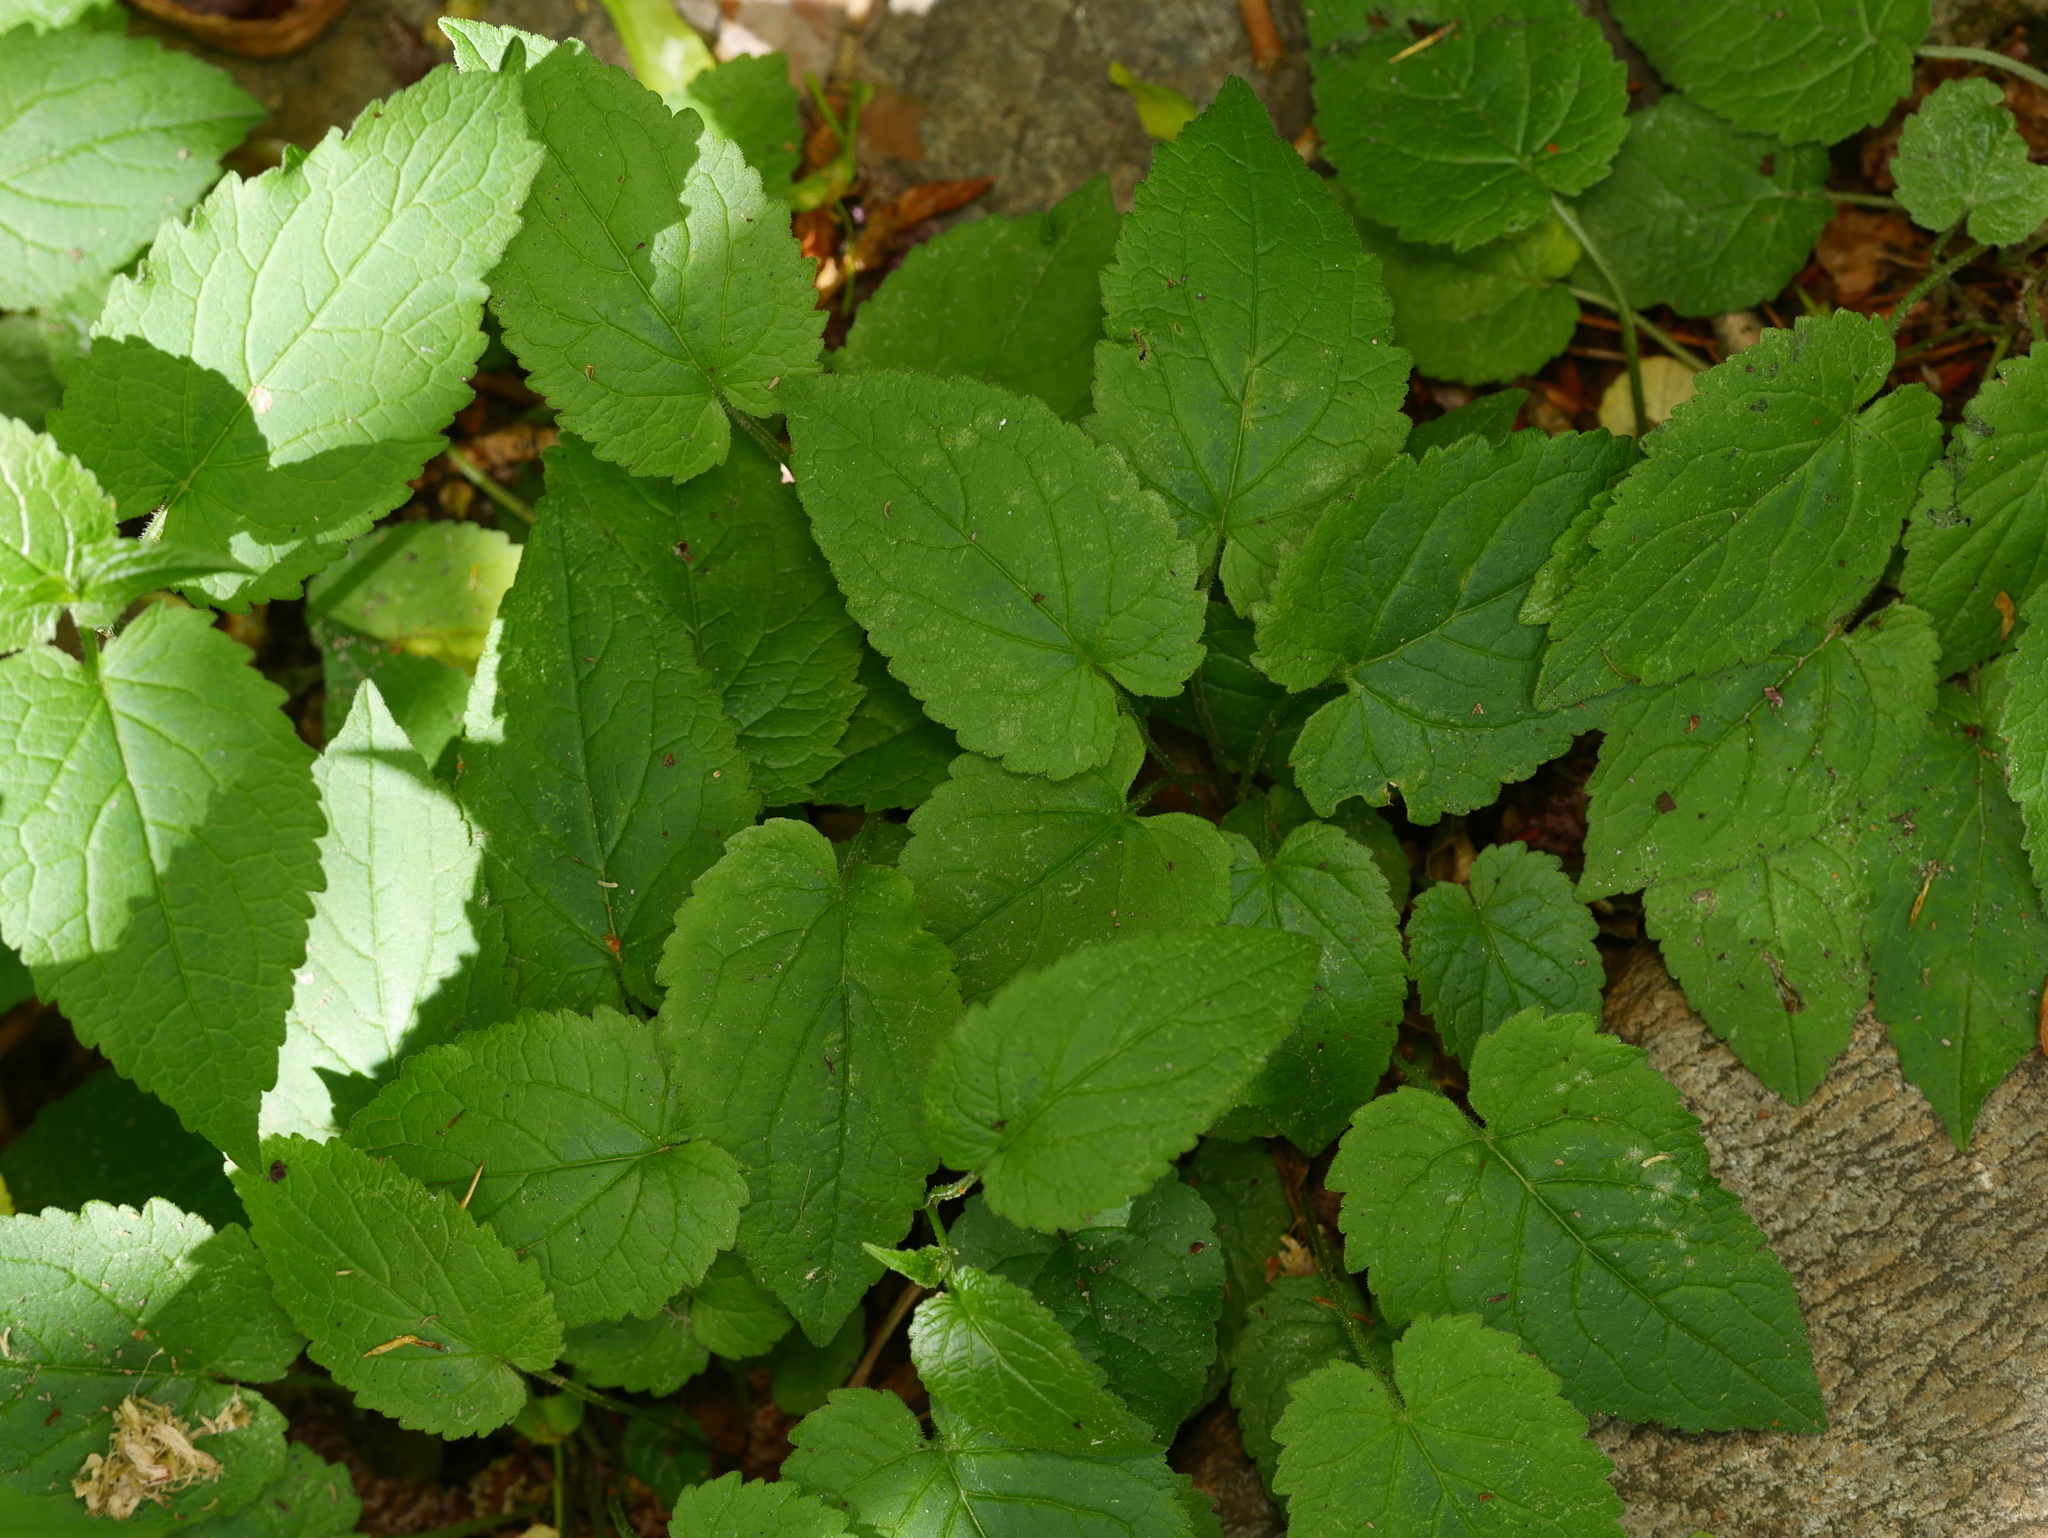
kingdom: Plantae
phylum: Tracheophyta
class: Magnoliopsida
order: Asterales
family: Campanulaceae
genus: Campanula
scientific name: Campanula rapunculoides
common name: Creeping bellflower
